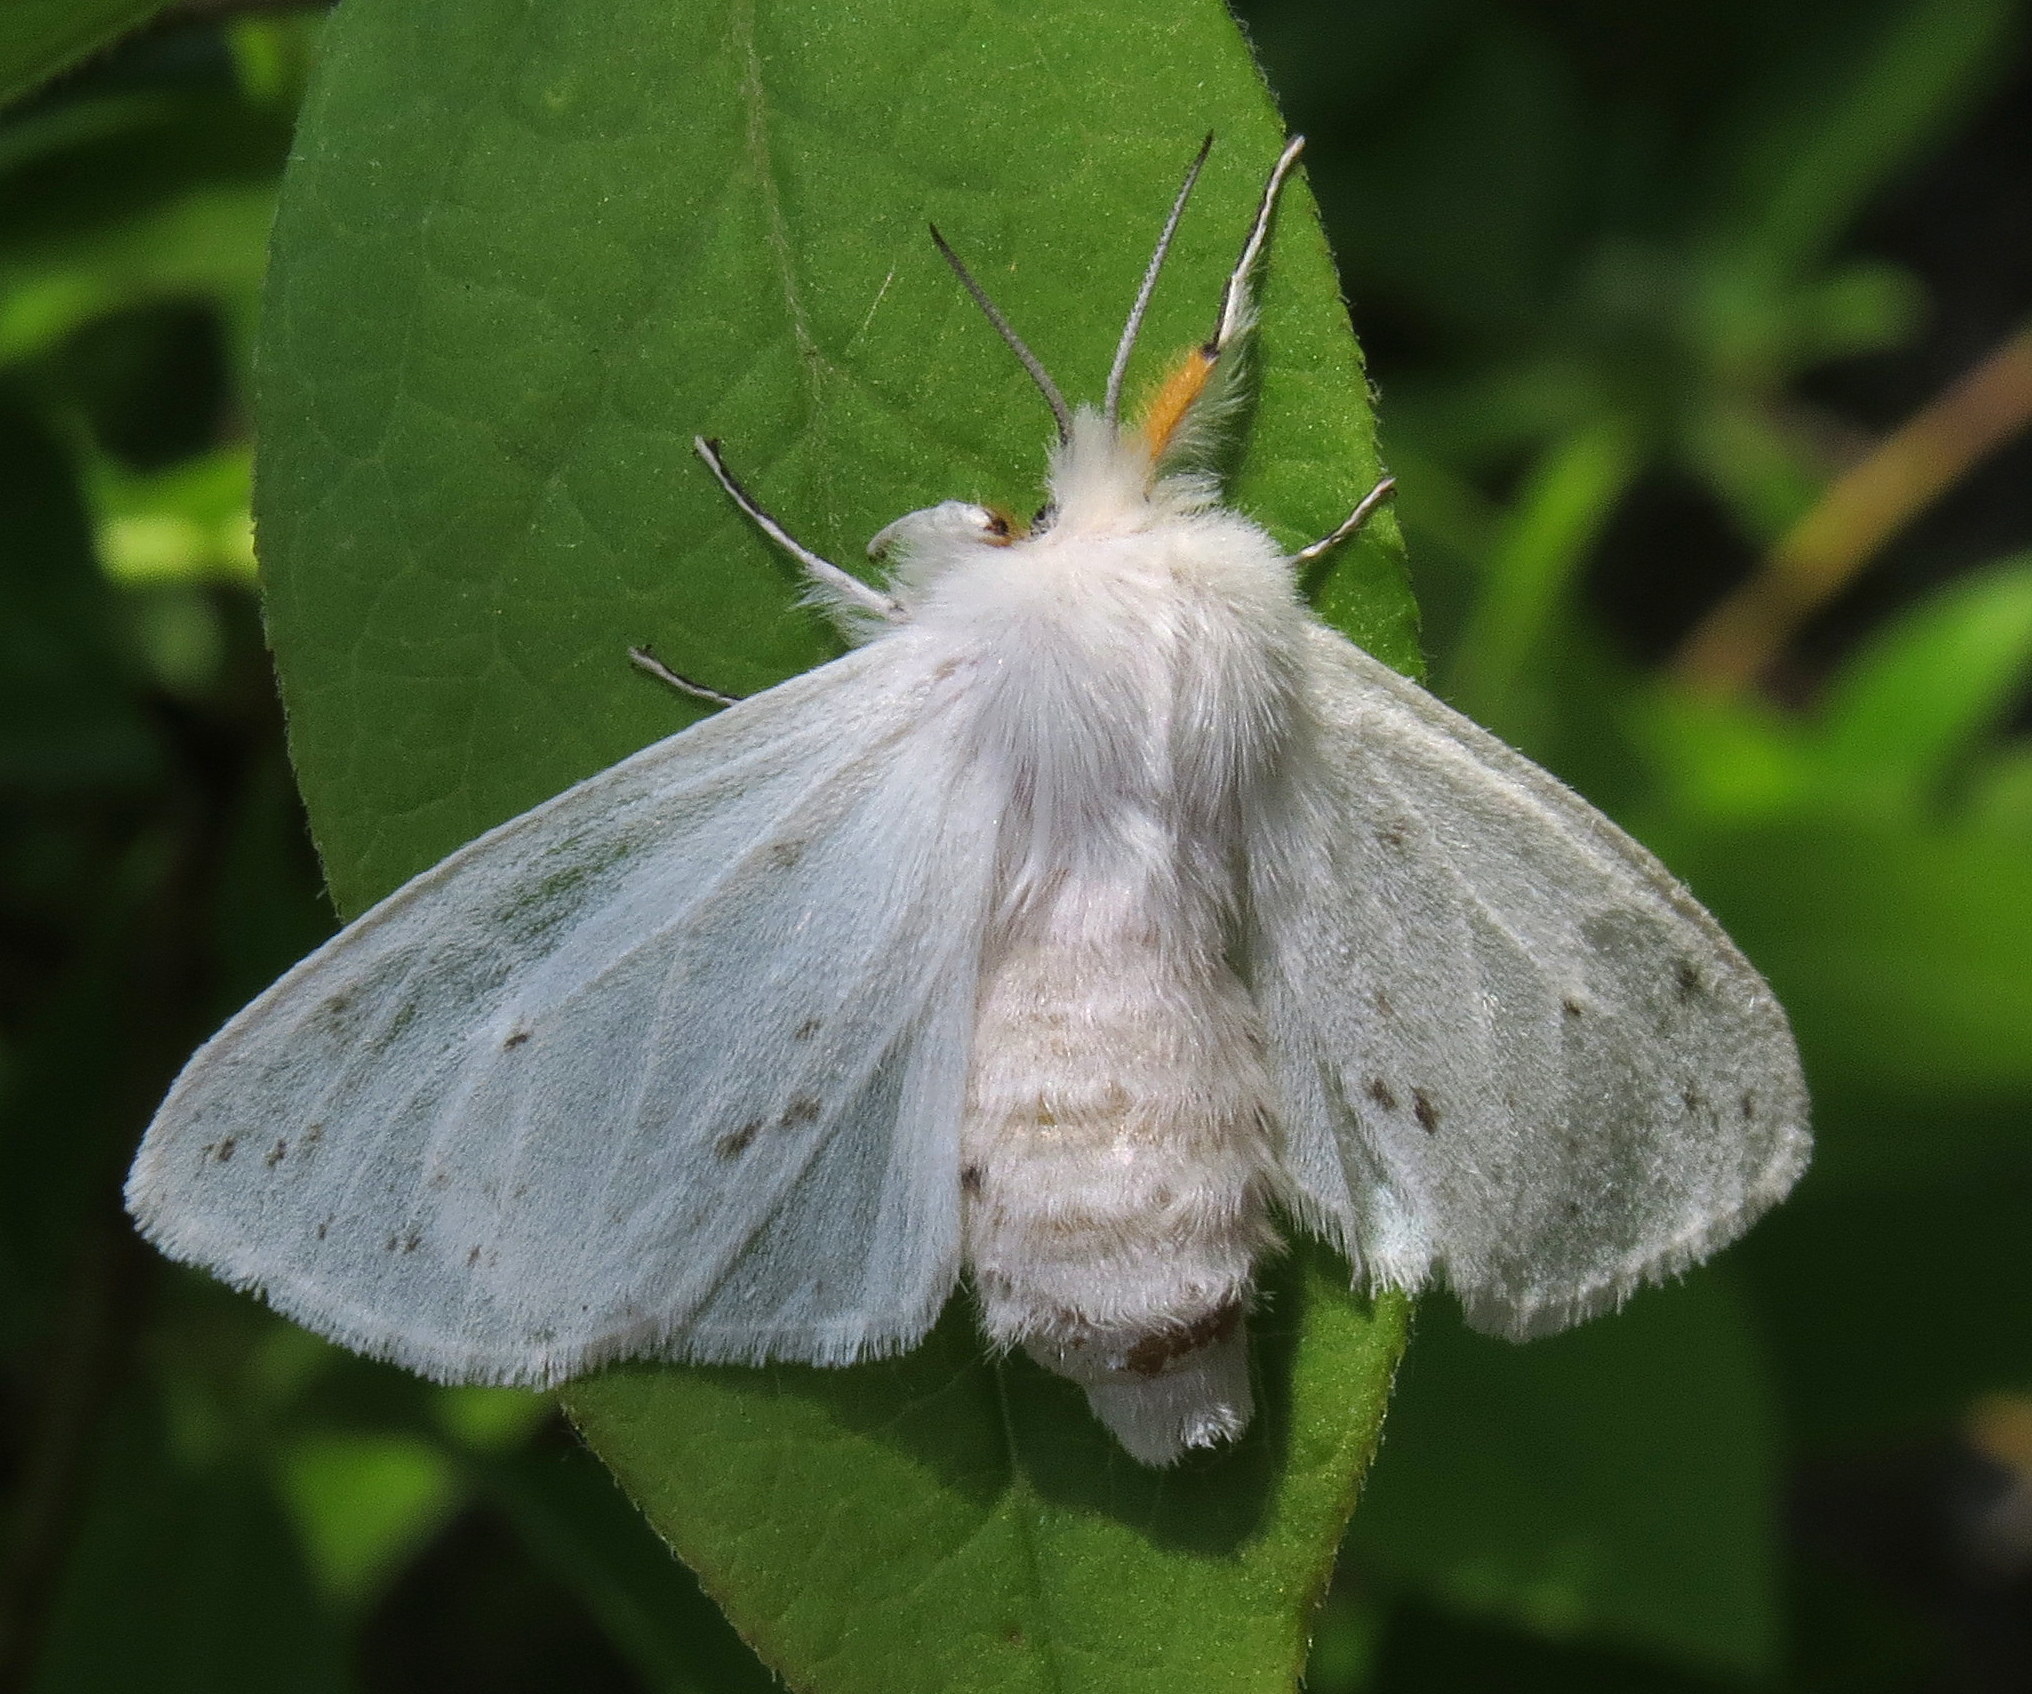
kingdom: Animalia
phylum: Arthropoda
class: Insecta
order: Lepidoptera
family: Erebidae
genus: Spilosoma
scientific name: Spilosoma congrua
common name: Agreeable tiger moth
